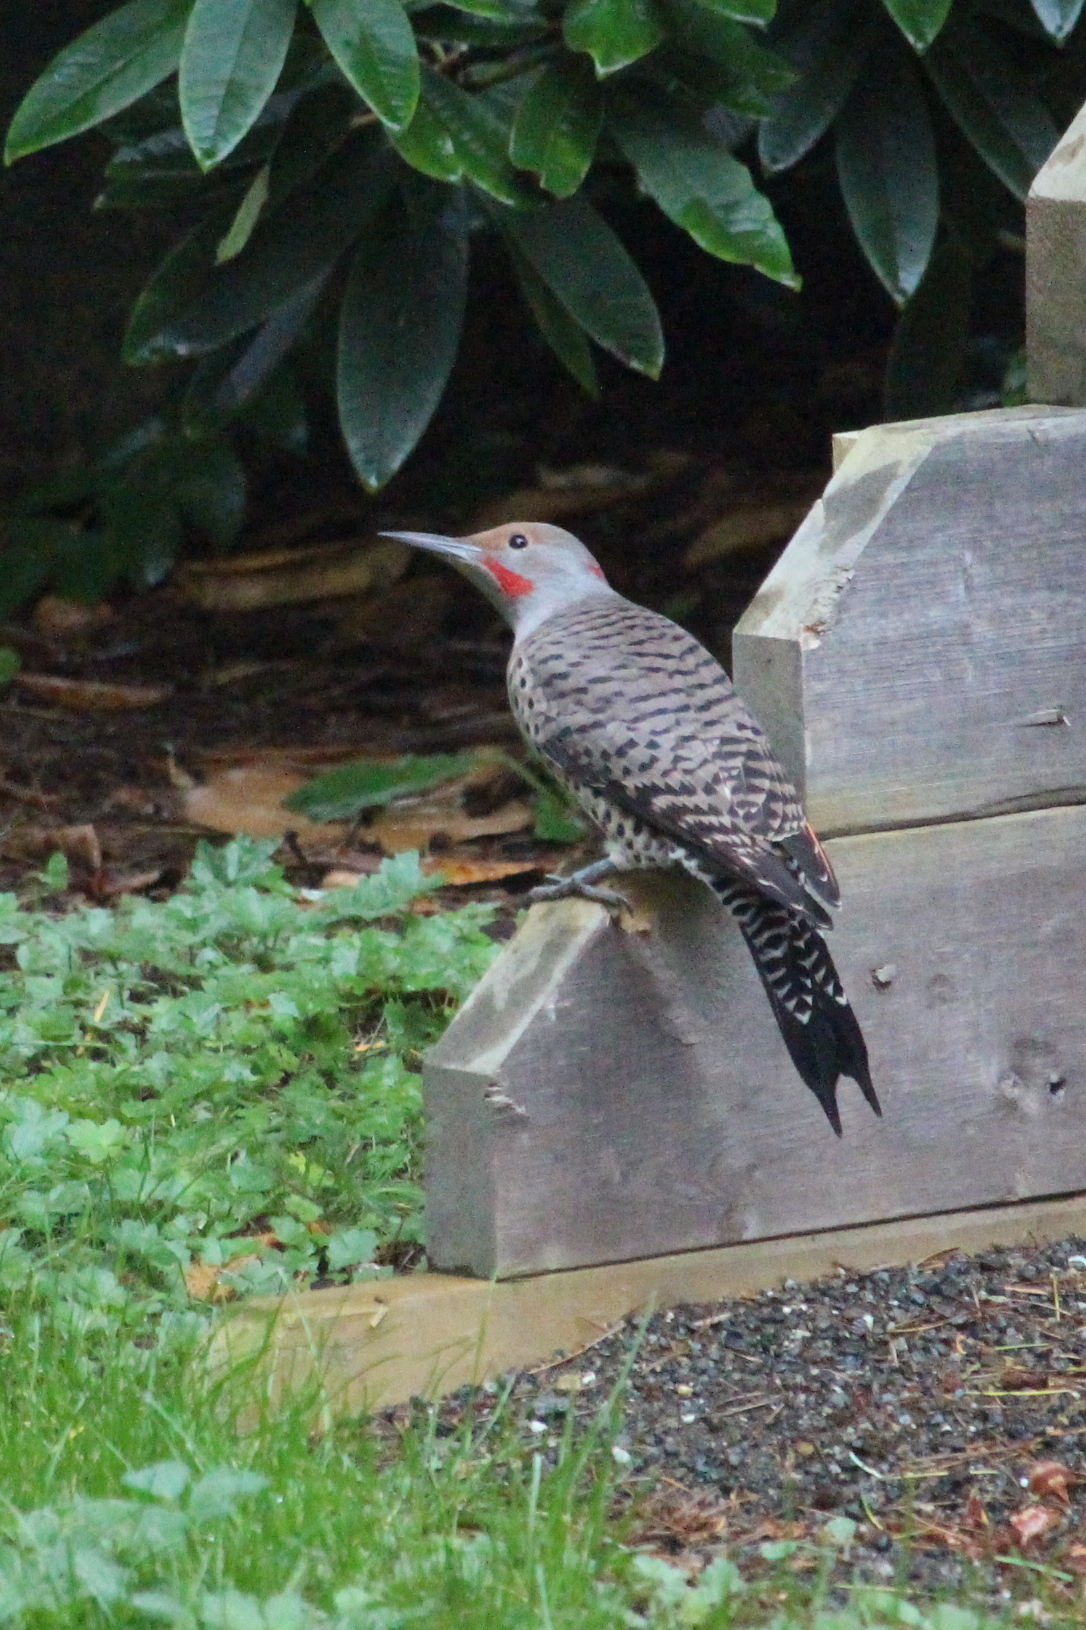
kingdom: Animalia
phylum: Chordata
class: Aves
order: Piciformes
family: Picidae
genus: Colaptes
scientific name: Colaptes auratus
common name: Northern flicker
